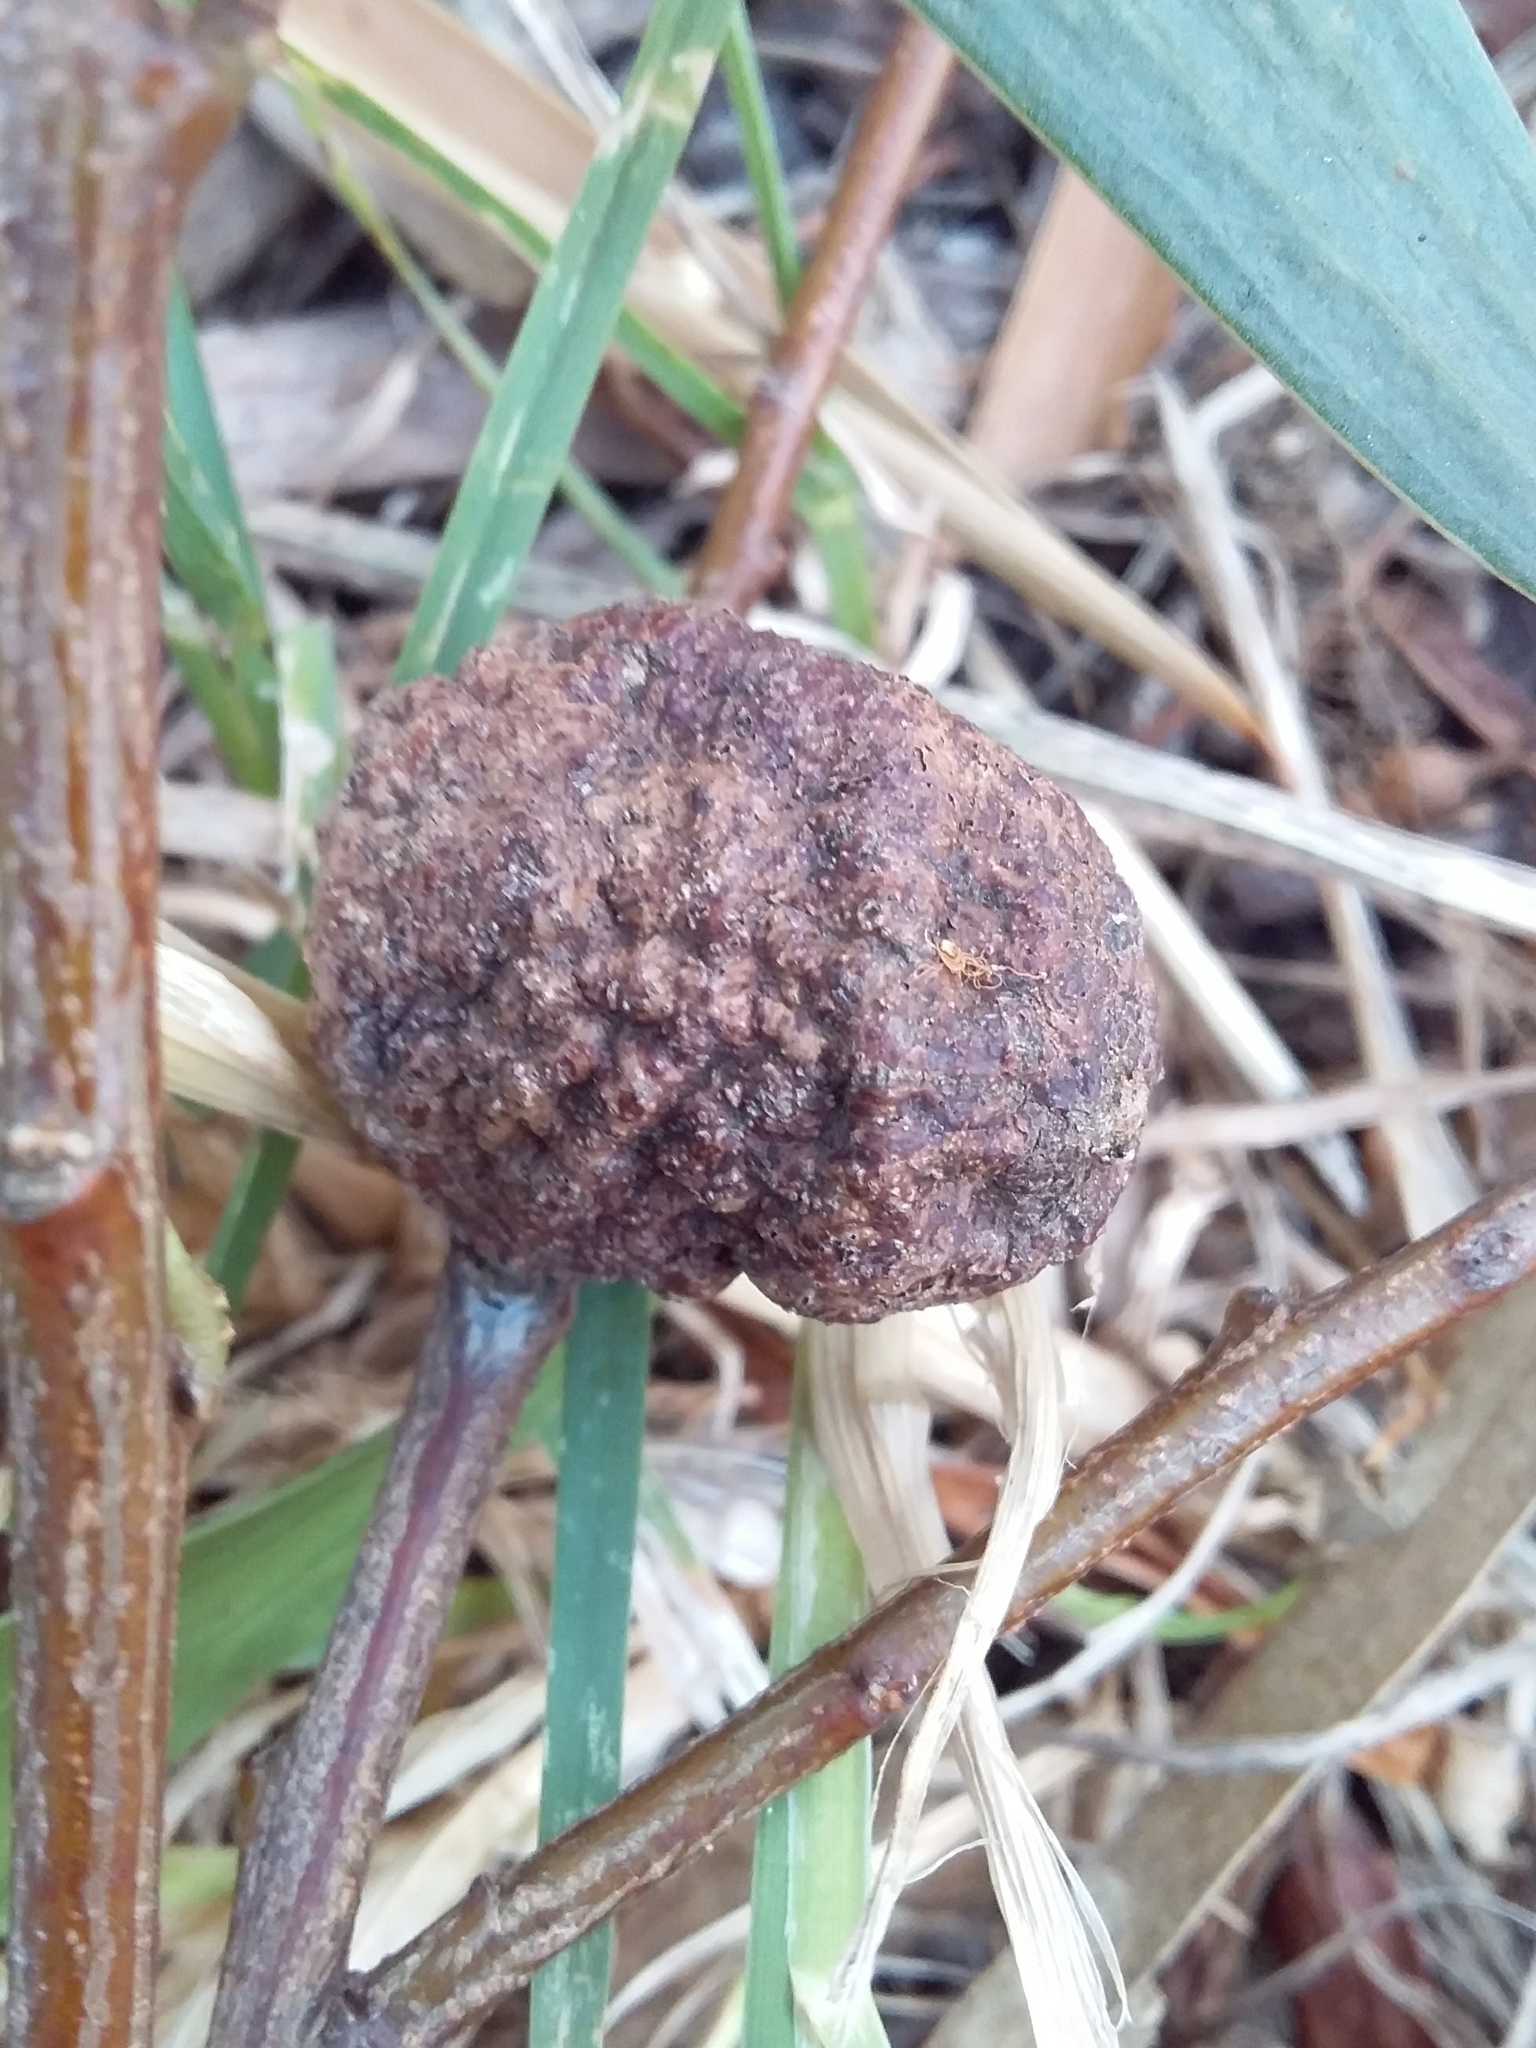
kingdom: Animalia
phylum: Arthropoda
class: Insecta
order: Hymenoptera
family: Pteromalidae
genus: Trichilogaster
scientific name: Trichilogaster acaciaelongifoliae
